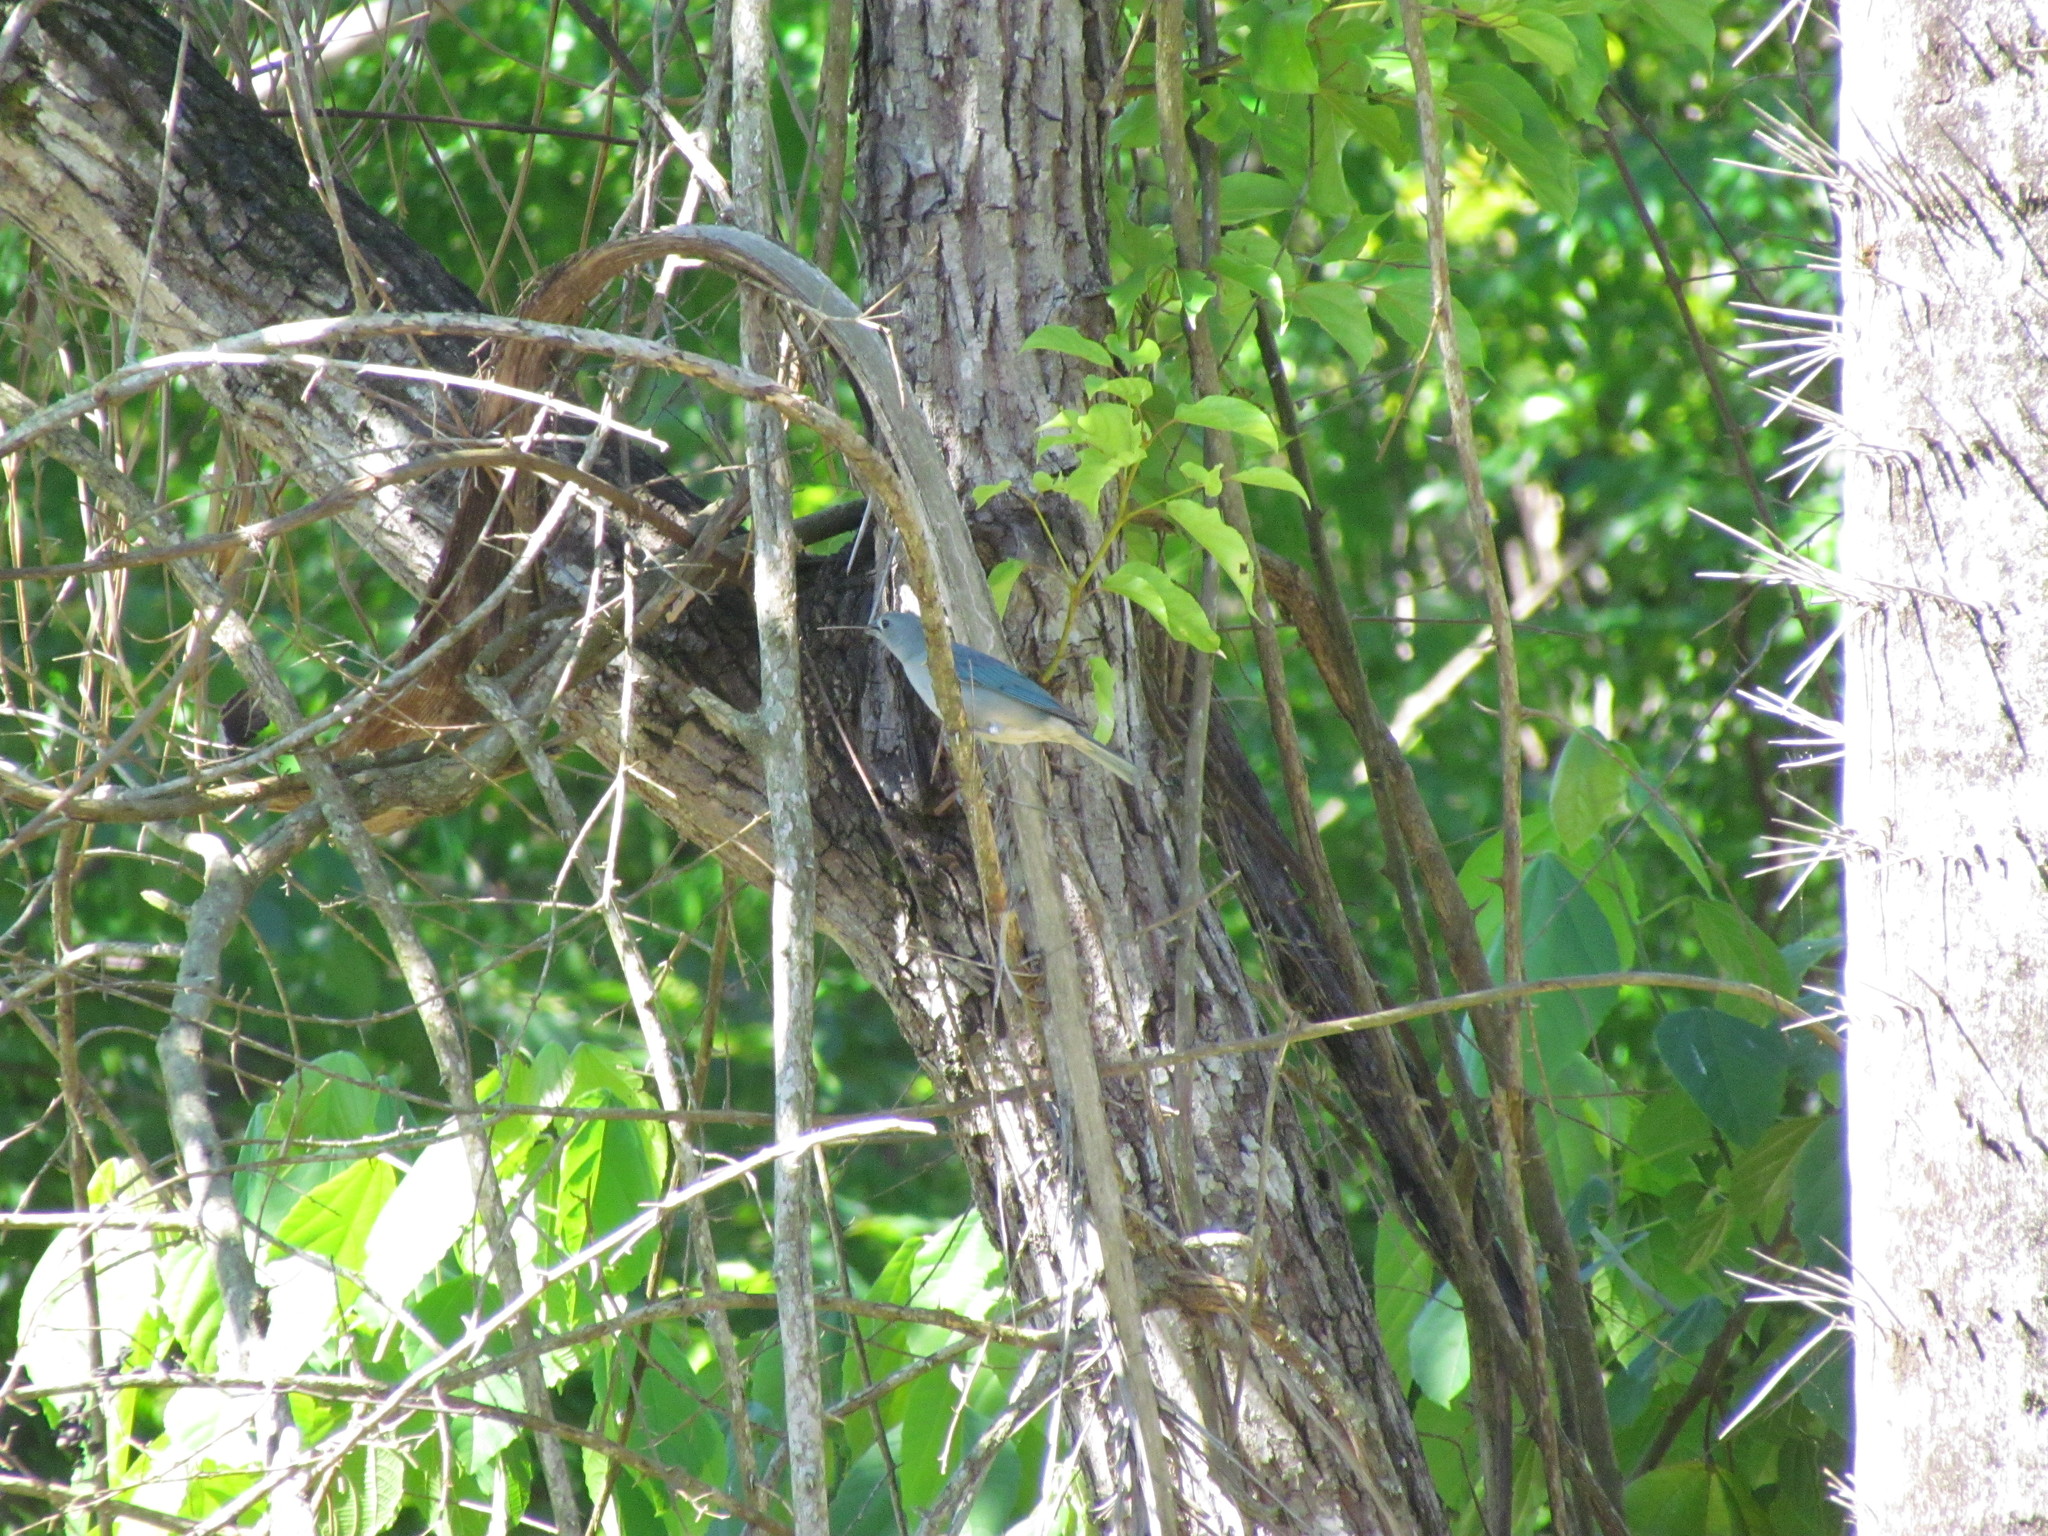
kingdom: Animalia
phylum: Chordata
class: Aves
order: Passeriformes
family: Thraupidae
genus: Thraupis
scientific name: Thraupis sayaca
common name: Sayaca tanager
